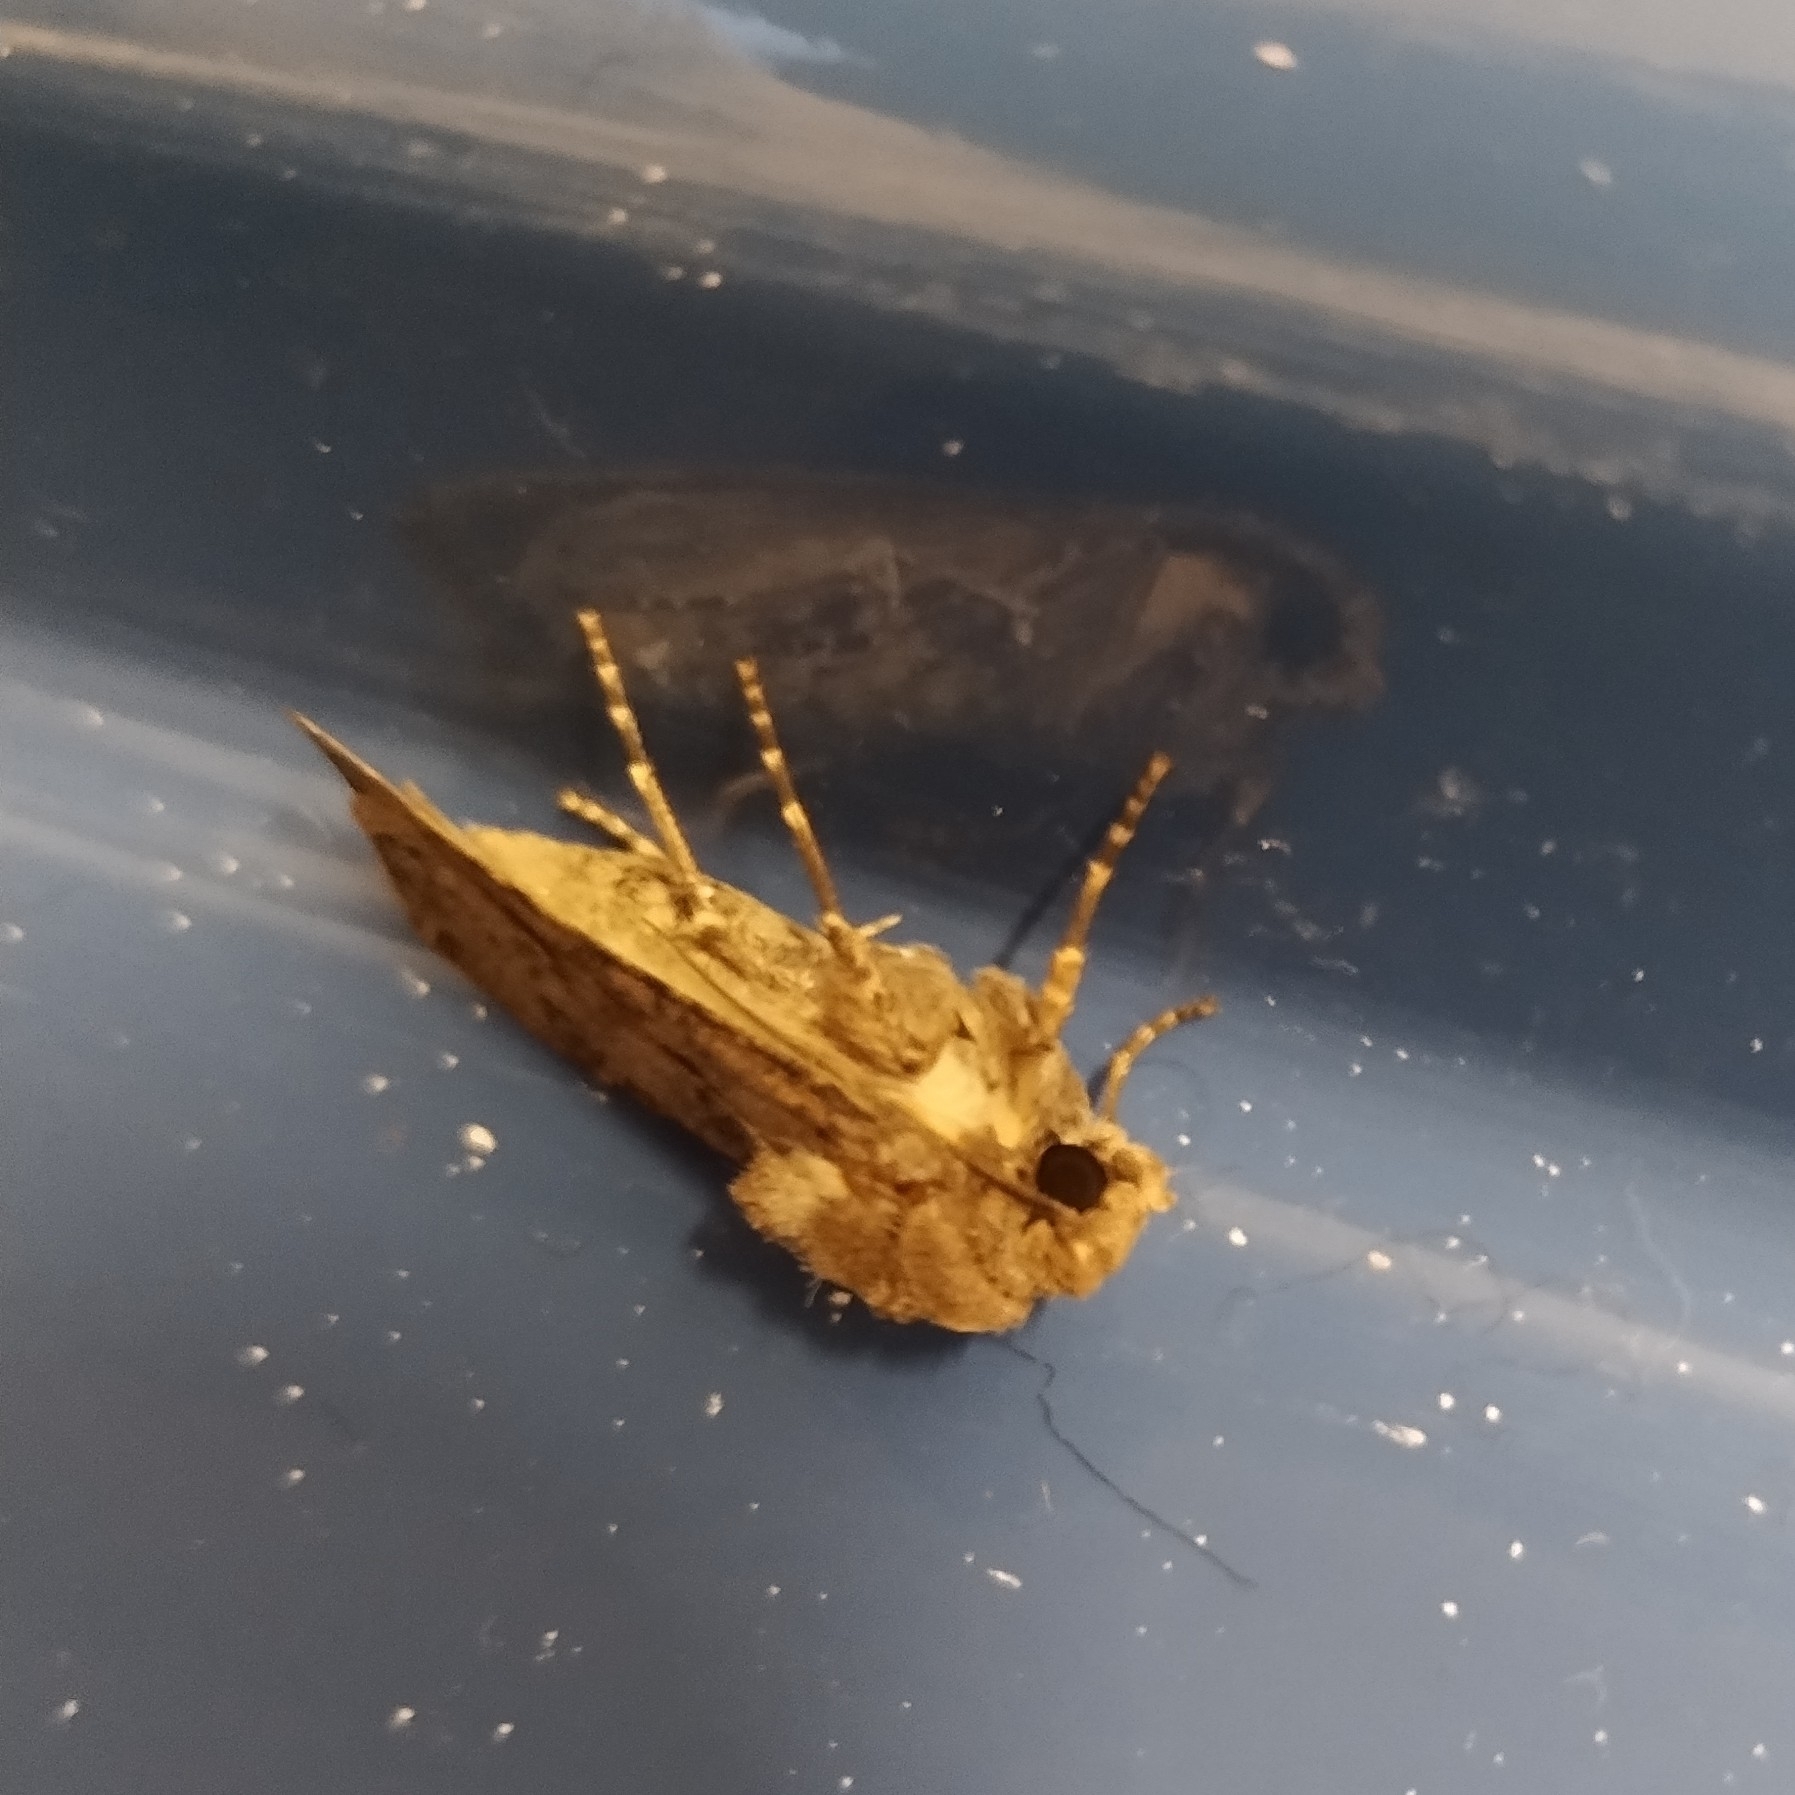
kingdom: Animalia
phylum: Arthropoda
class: Insecta
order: Lepidoptera
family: Noctuidae
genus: Agrotis
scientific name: Agrotis segetum
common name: Turnip moth
